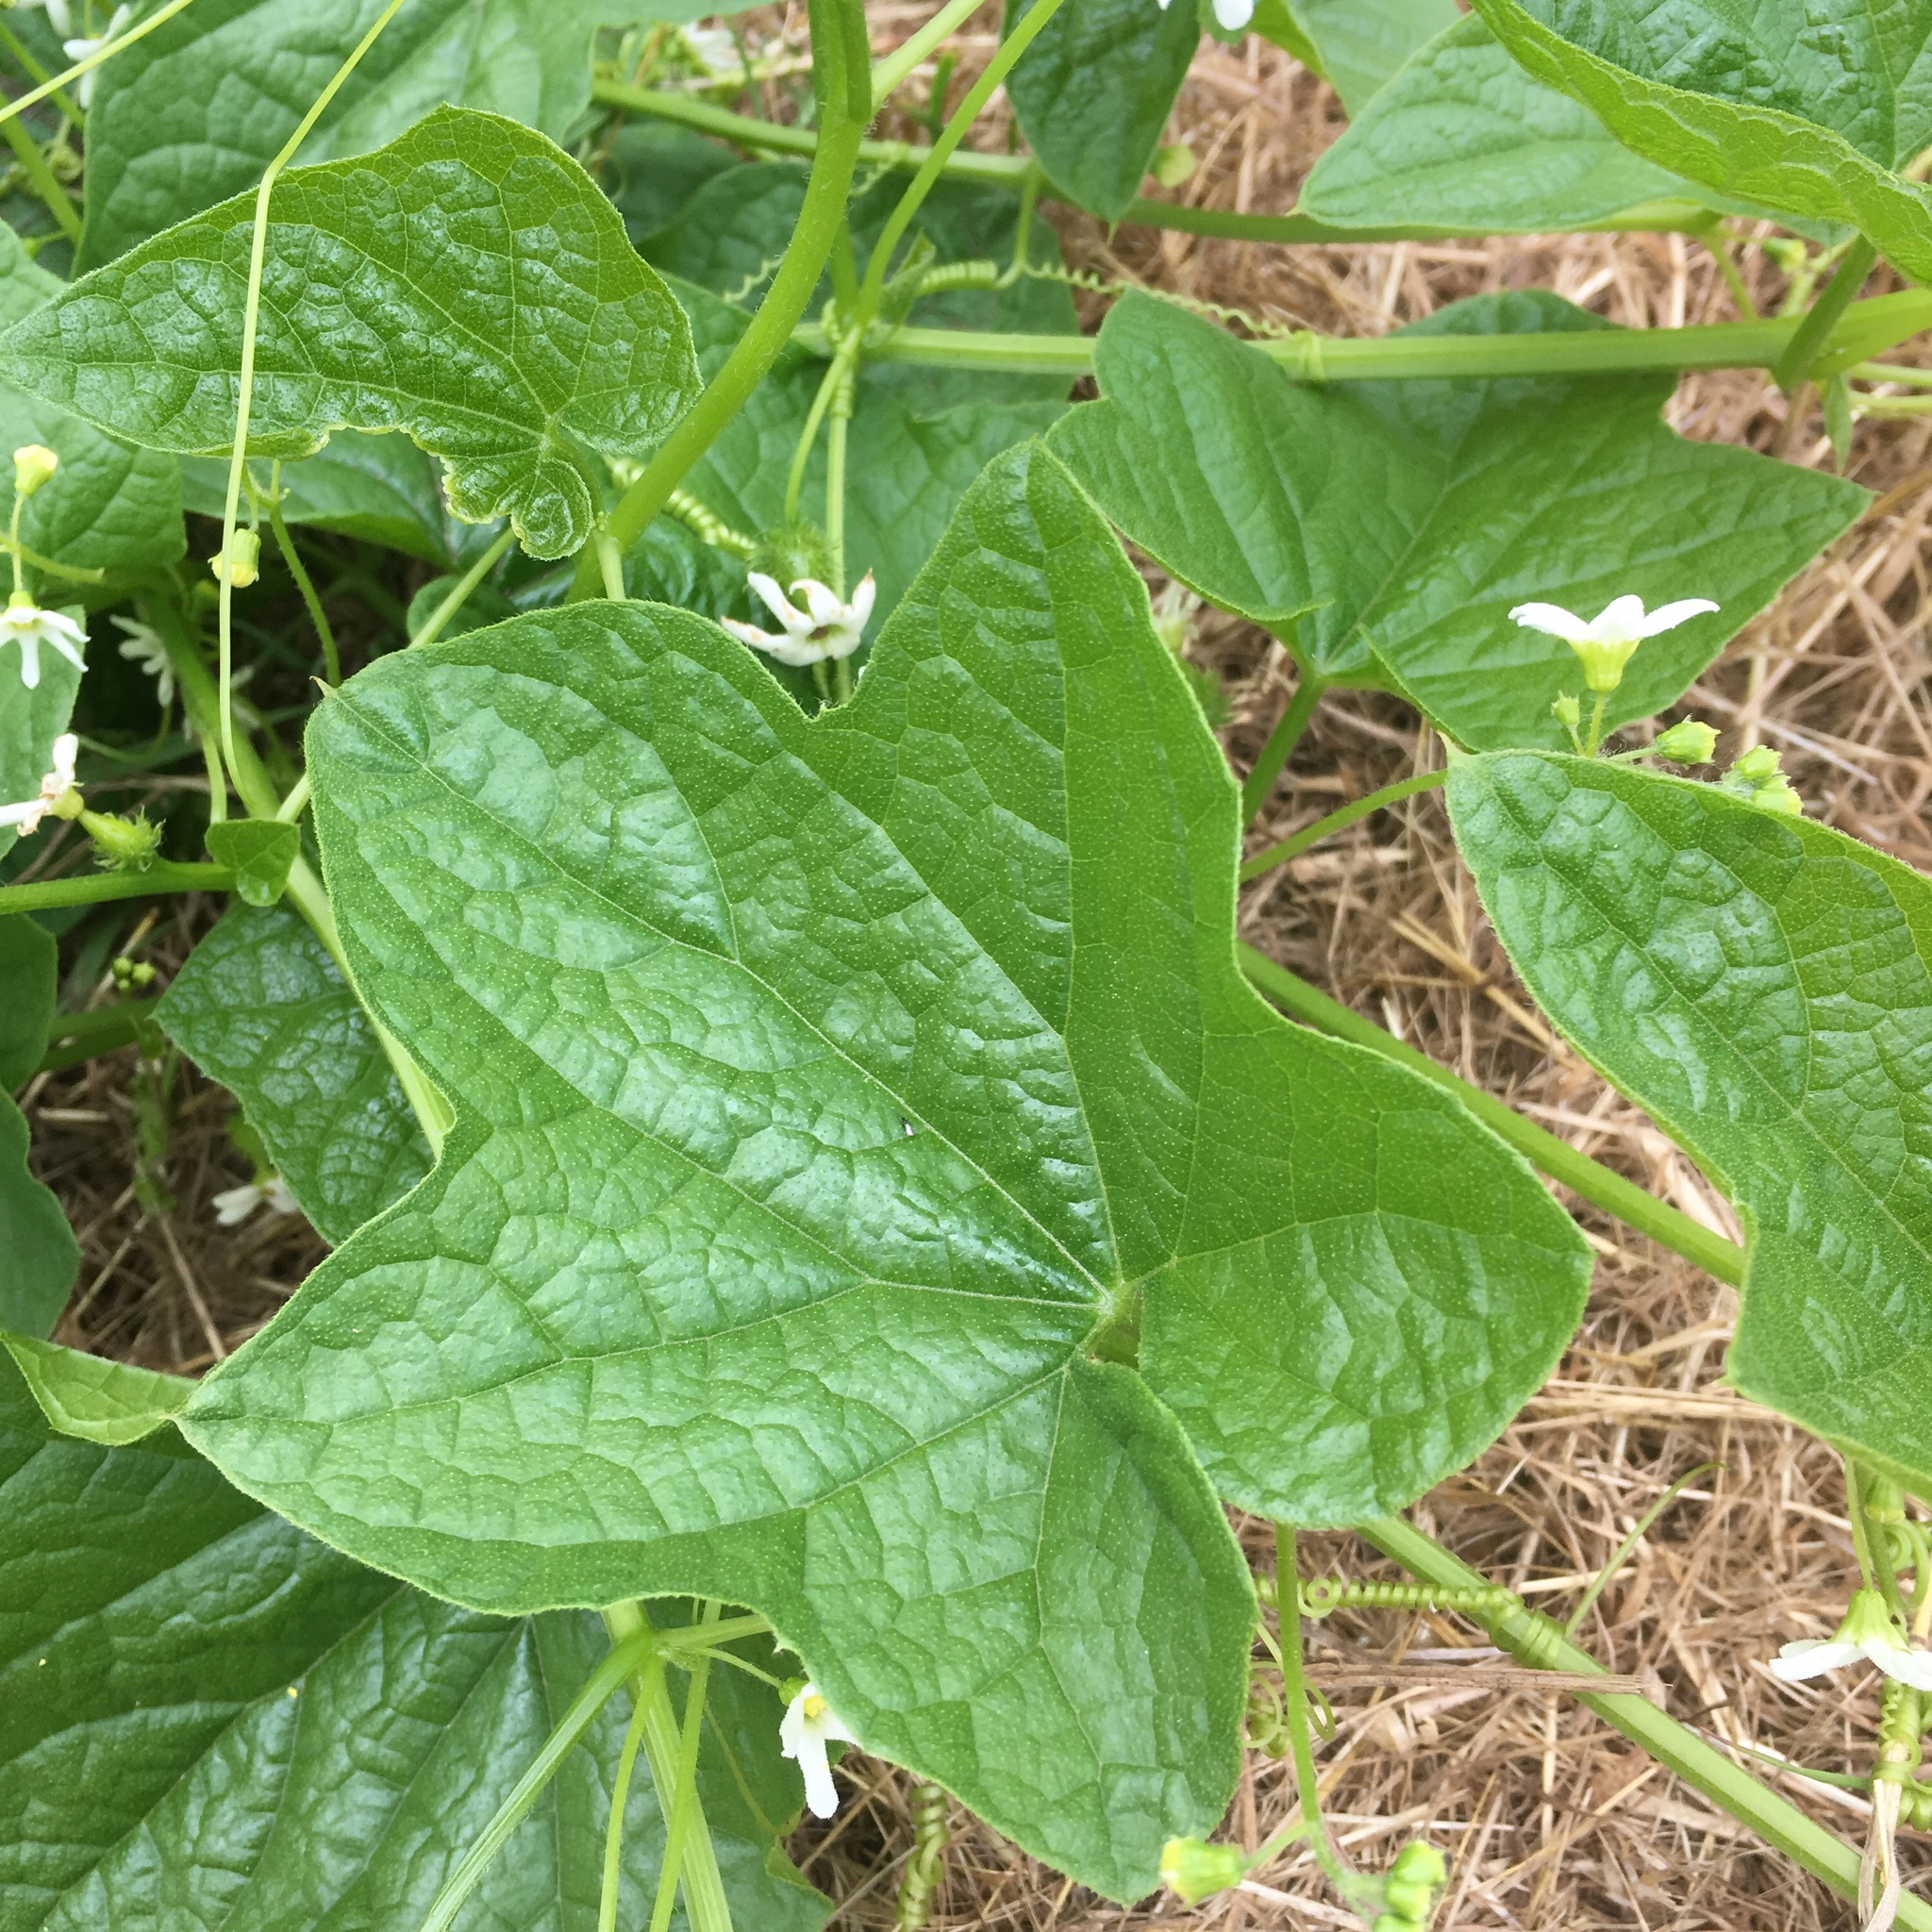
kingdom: Plantae
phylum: Tracheophyta
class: Magnoliopsida
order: Cucurbitales
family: Cucurbitaceae
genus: Marah
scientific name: Marah oregana
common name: Coastal manroot
